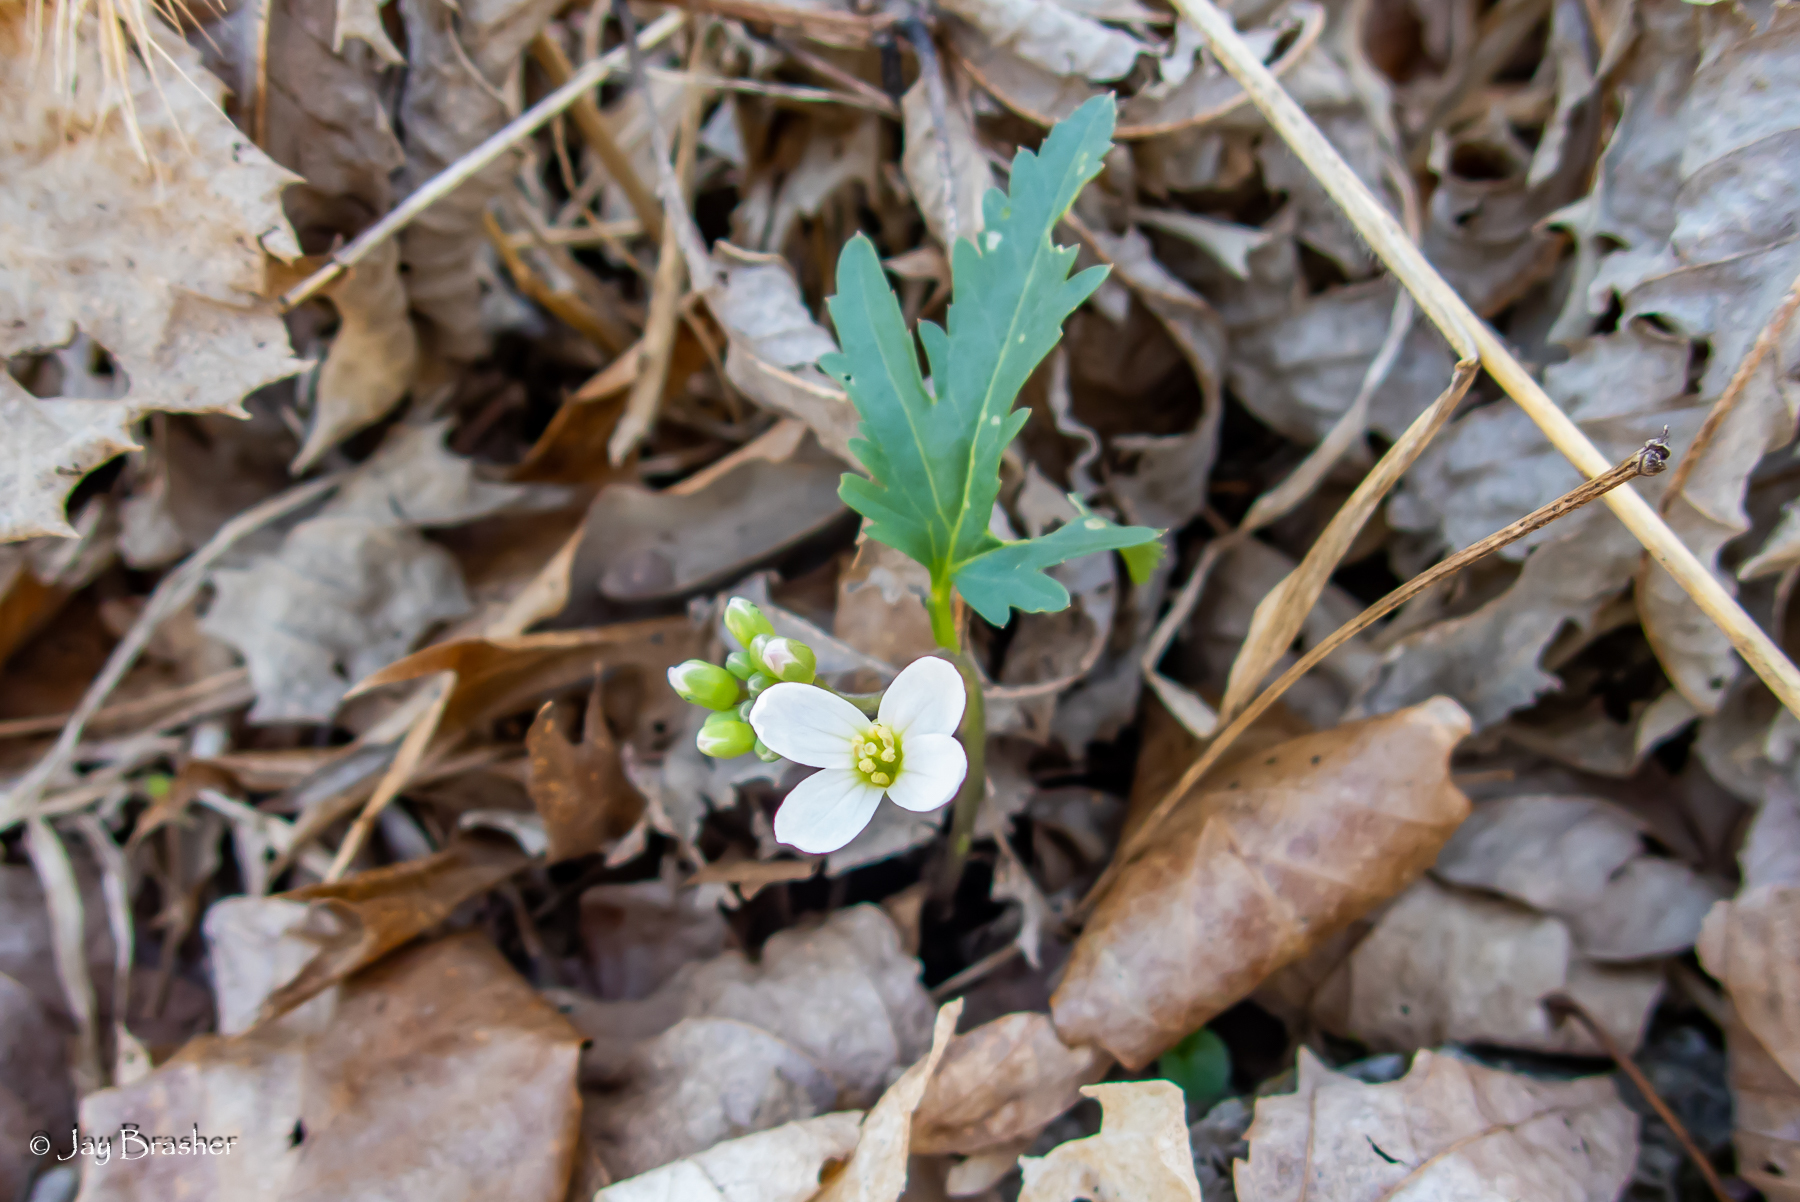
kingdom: Plantae
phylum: Tracheophyta
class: Magnoliopsida
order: Brassicales
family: Brassicaceae
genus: Cardamine
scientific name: Cardamine concatenata
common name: Cut-leaf toothcup
